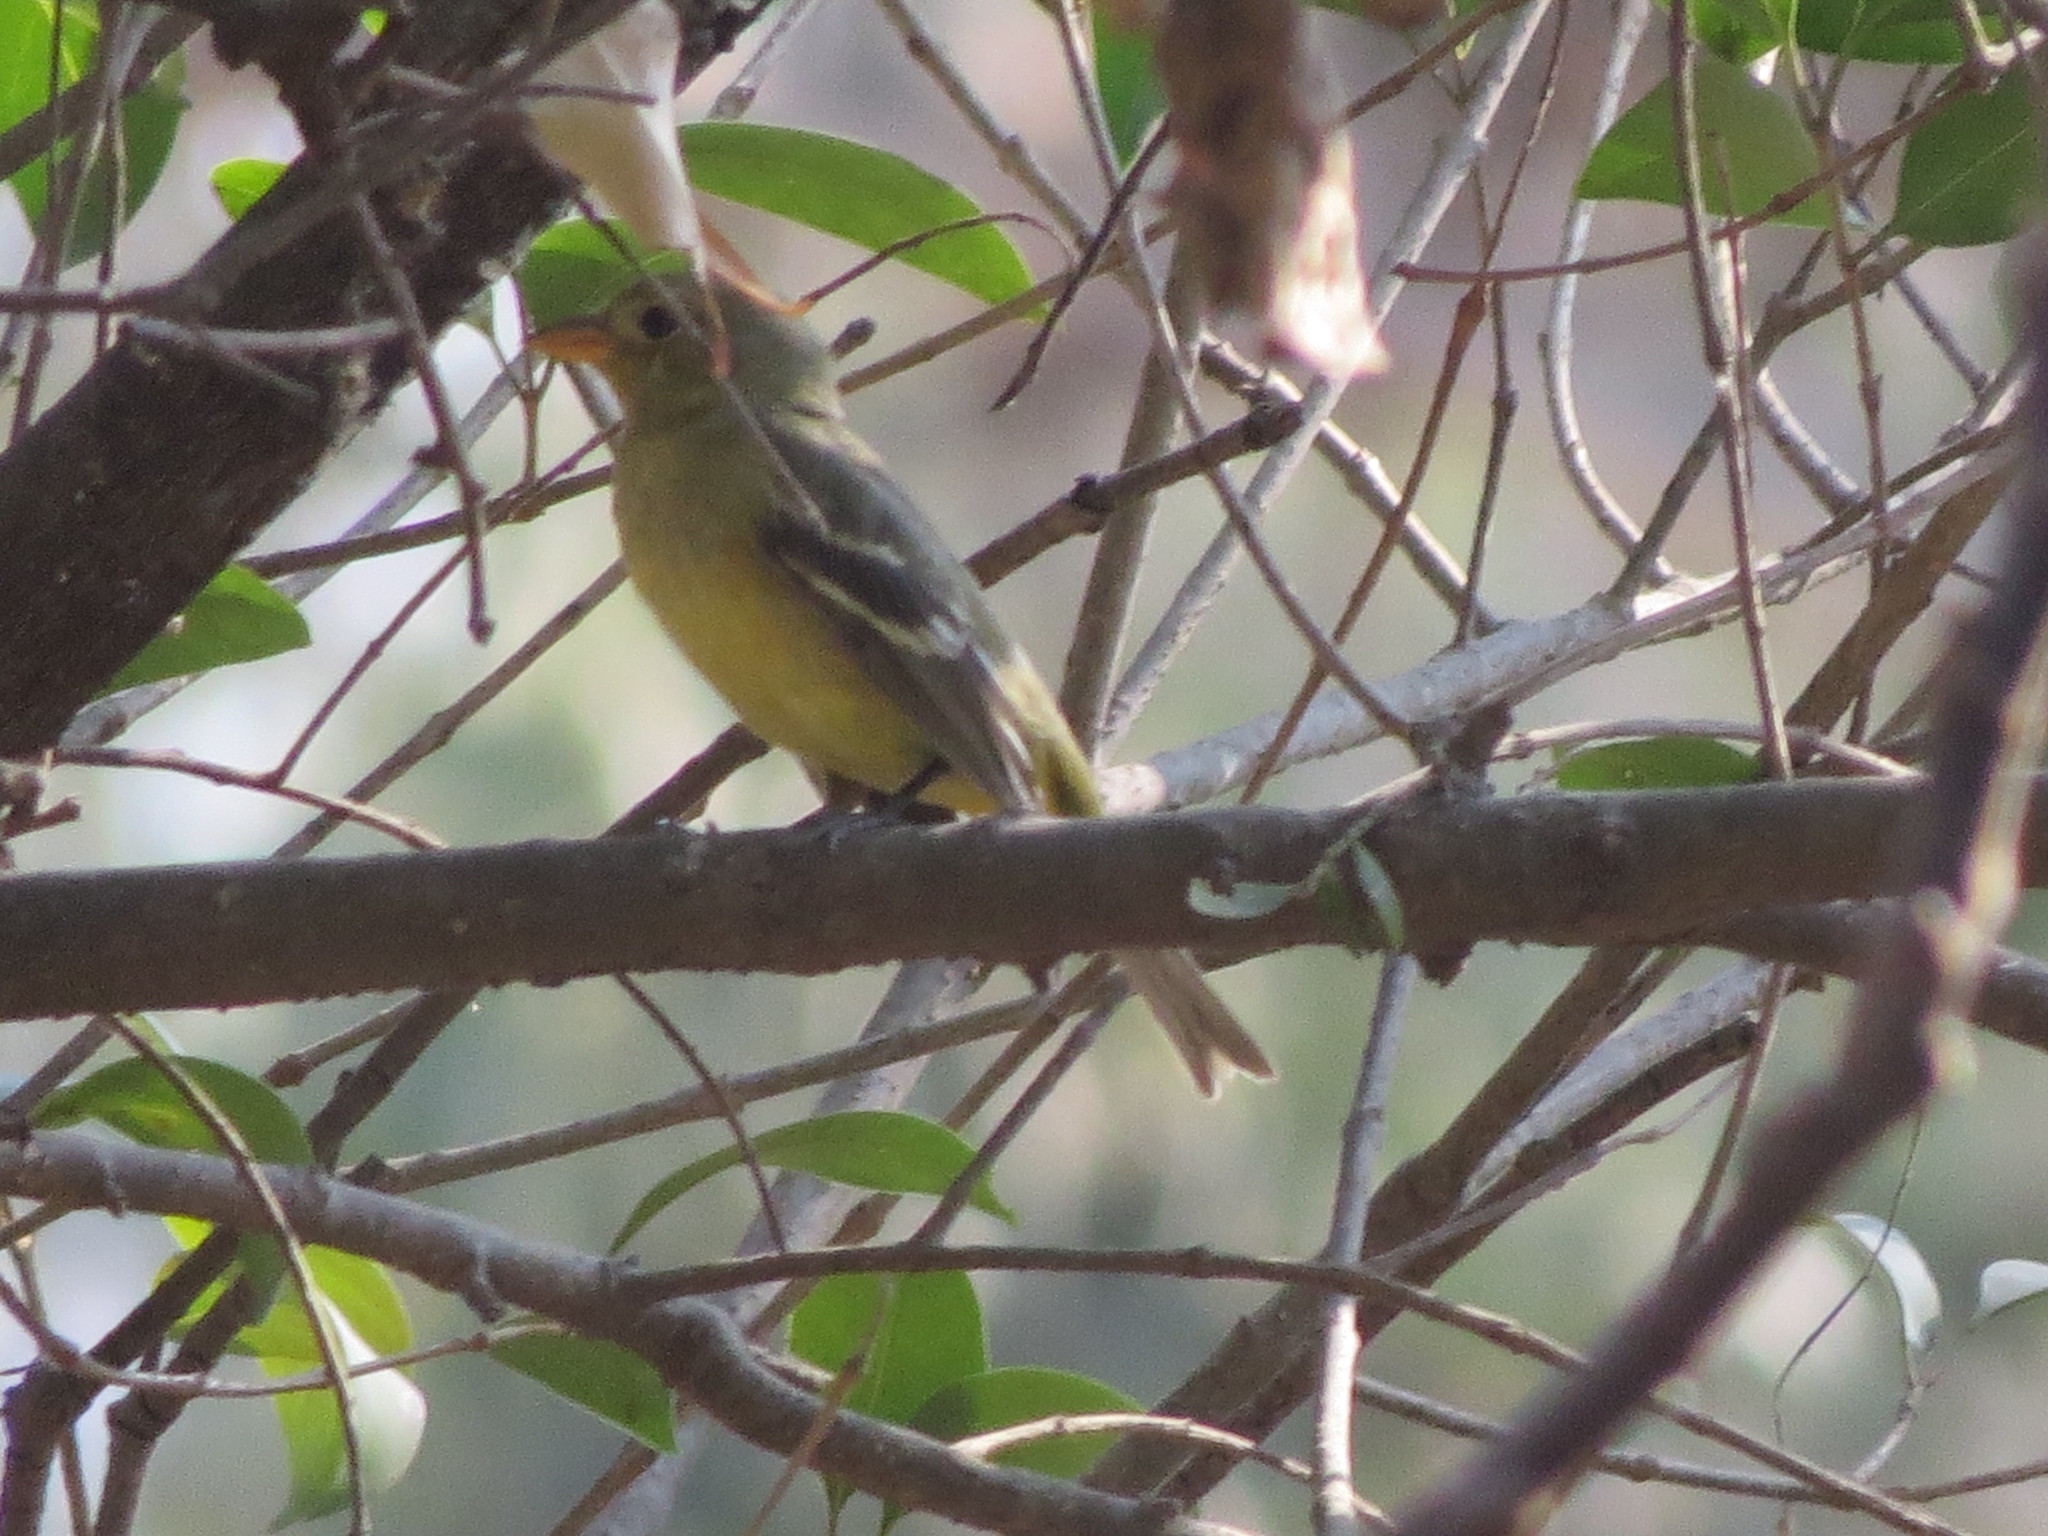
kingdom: Animalia
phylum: Chordata
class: Aves
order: Passeriformes
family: Cardinalidae
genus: Piranga
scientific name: Piranga ludoviciana
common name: Western tanager
